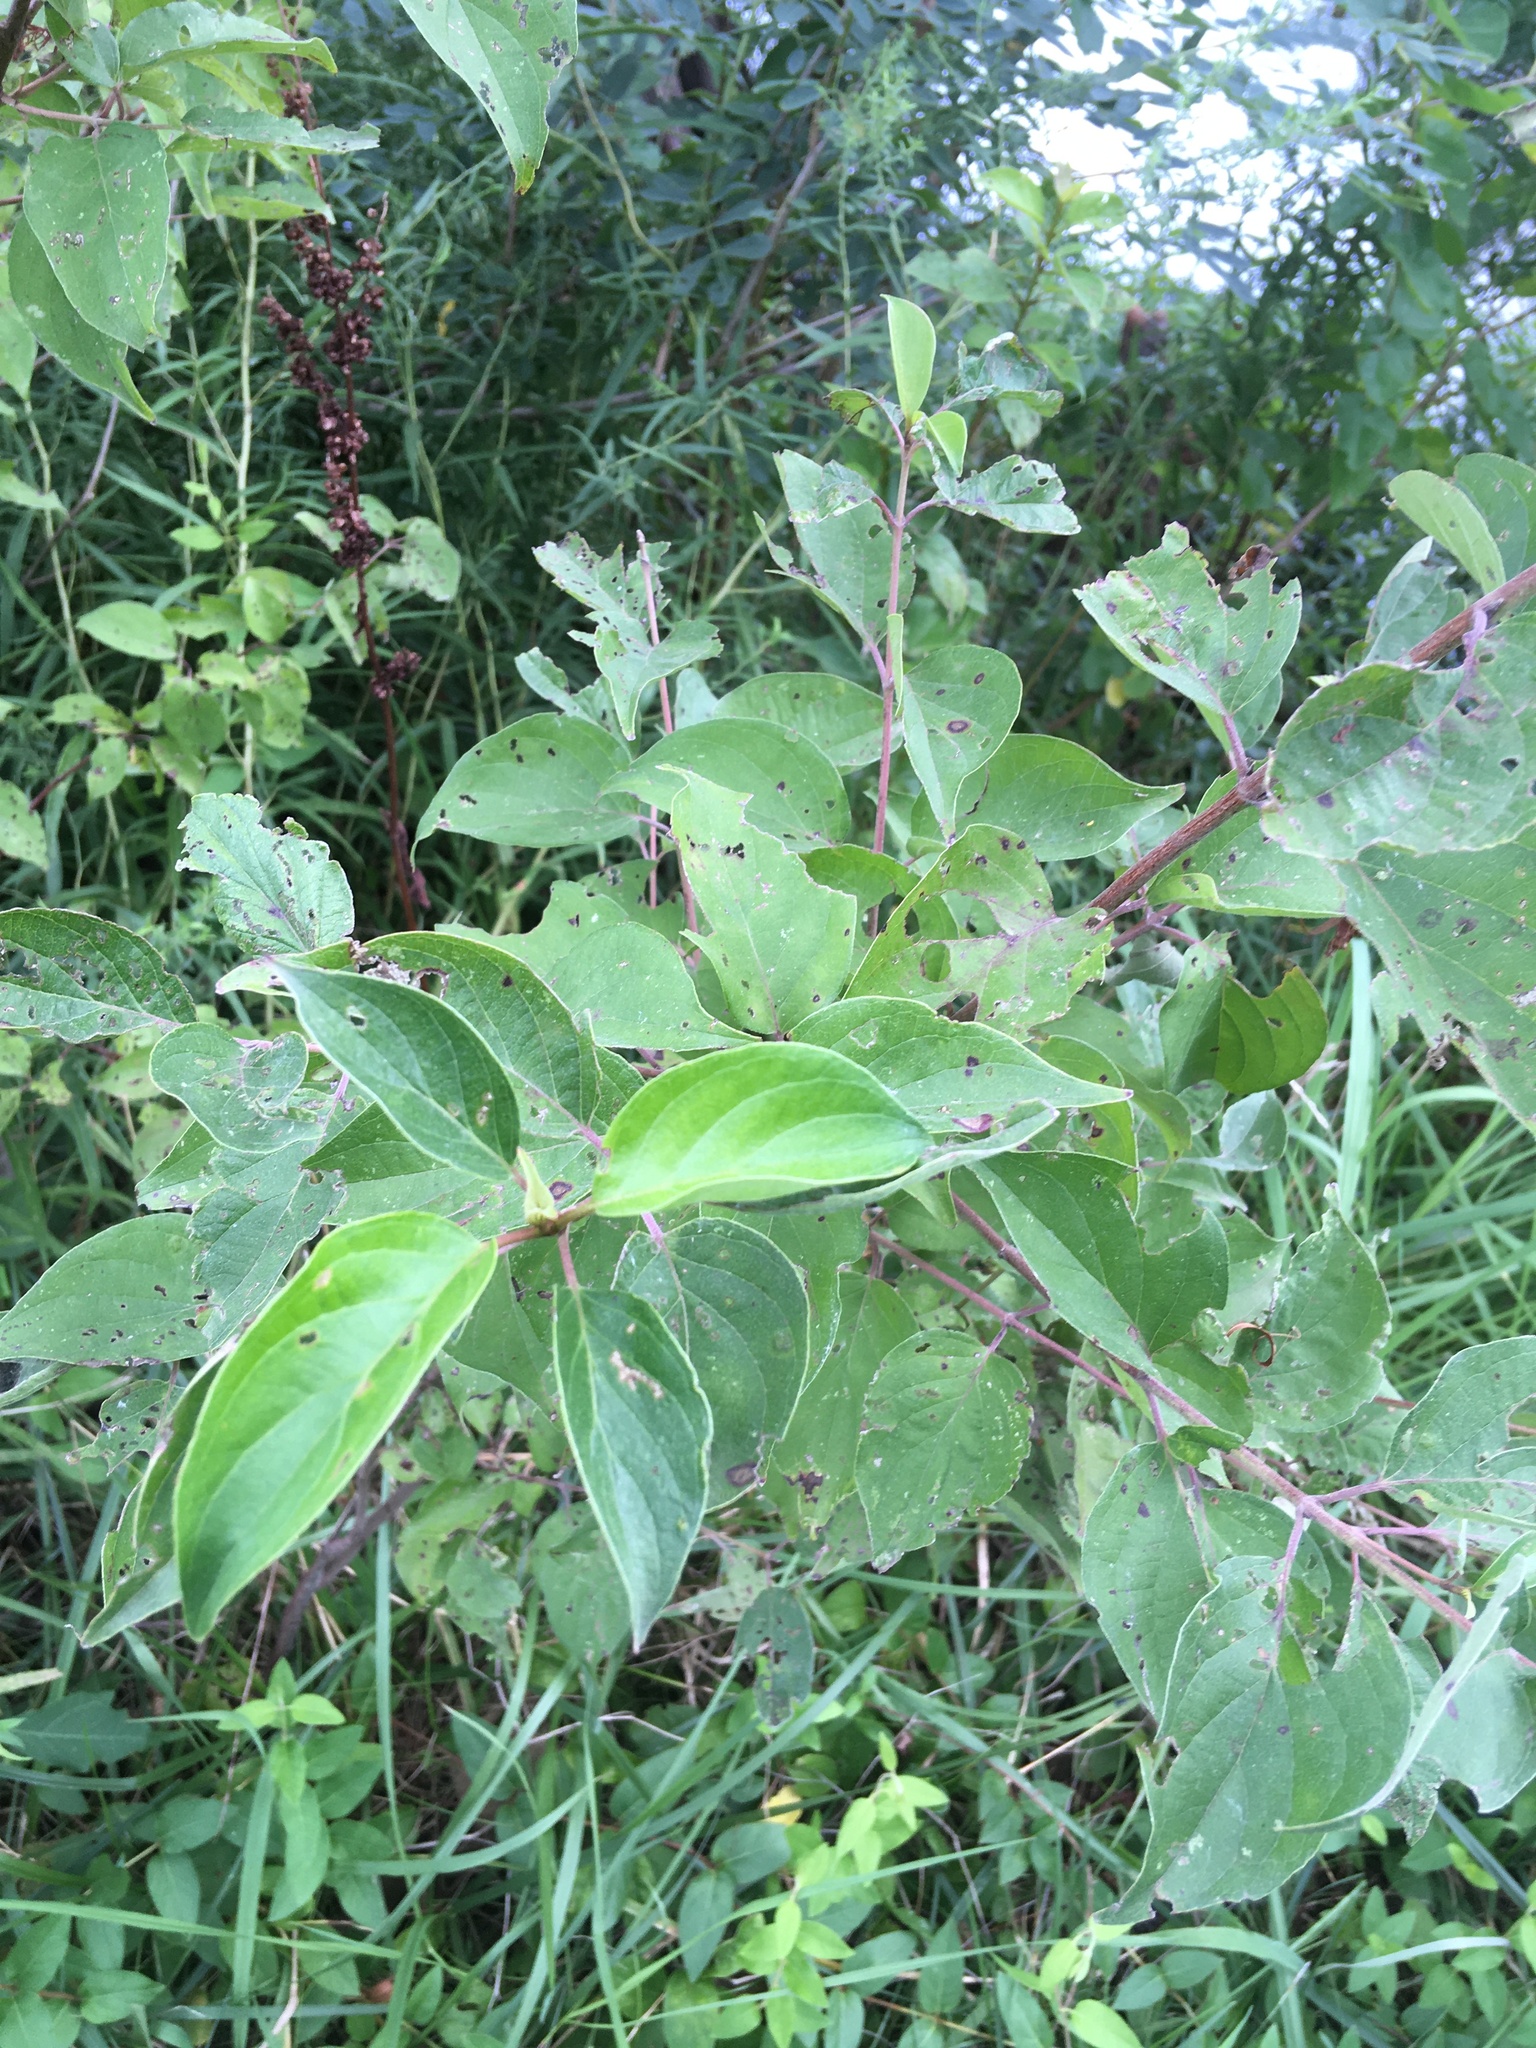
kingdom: Plantae
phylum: Tracheophyta
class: Magnoliopsida
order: Cornales
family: Cornaceae
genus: Cornus
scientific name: Cornus drummondii
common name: Rough-leaf dogwood
